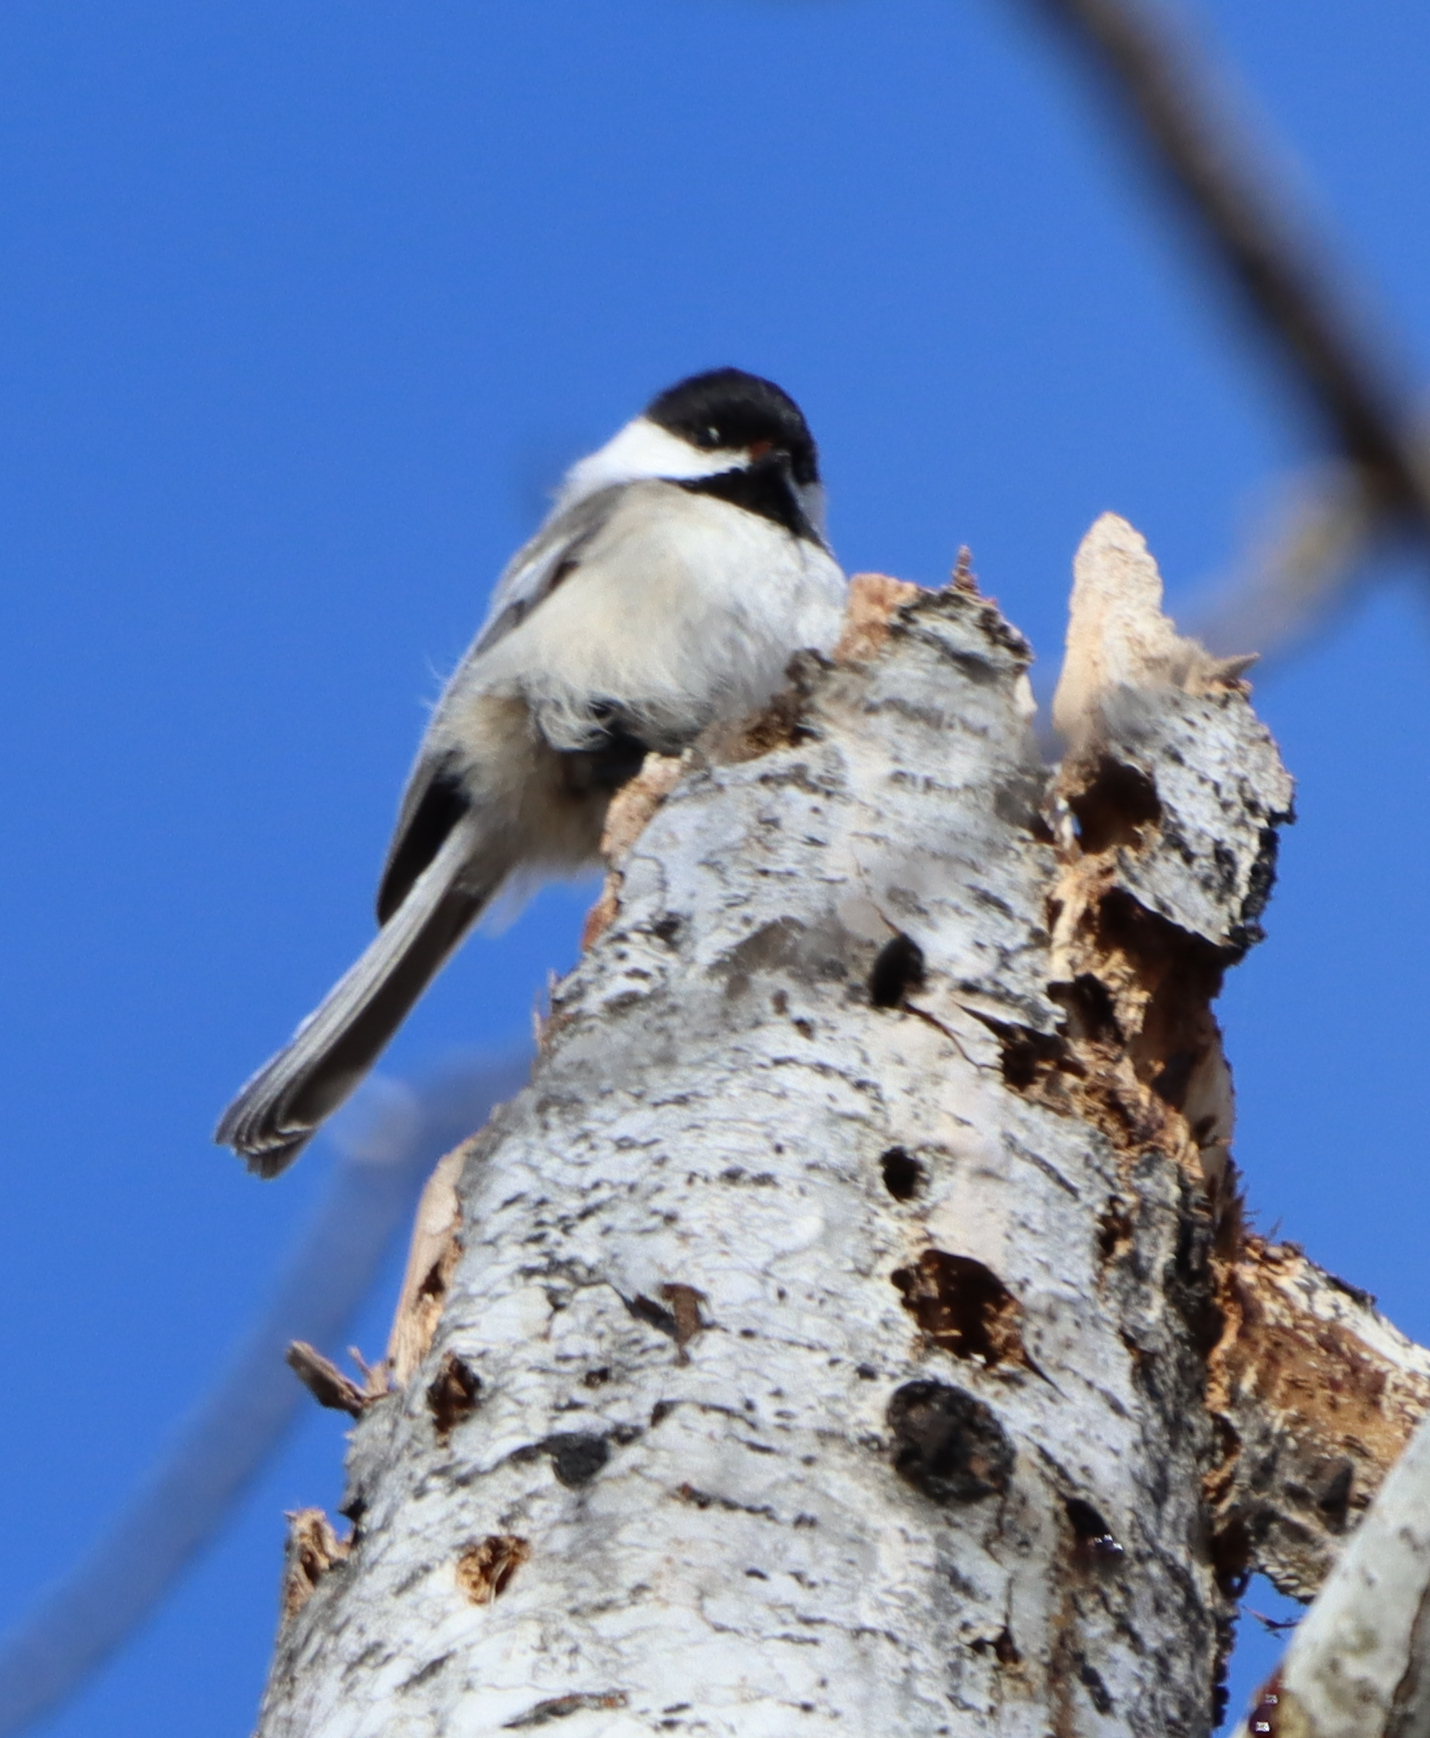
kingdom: Animalia
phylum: Chordata
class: Aves
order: Passeriformes
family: Paridae
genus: Poecile
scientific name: Poecile atricapillus
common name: Black-capped chickadee
